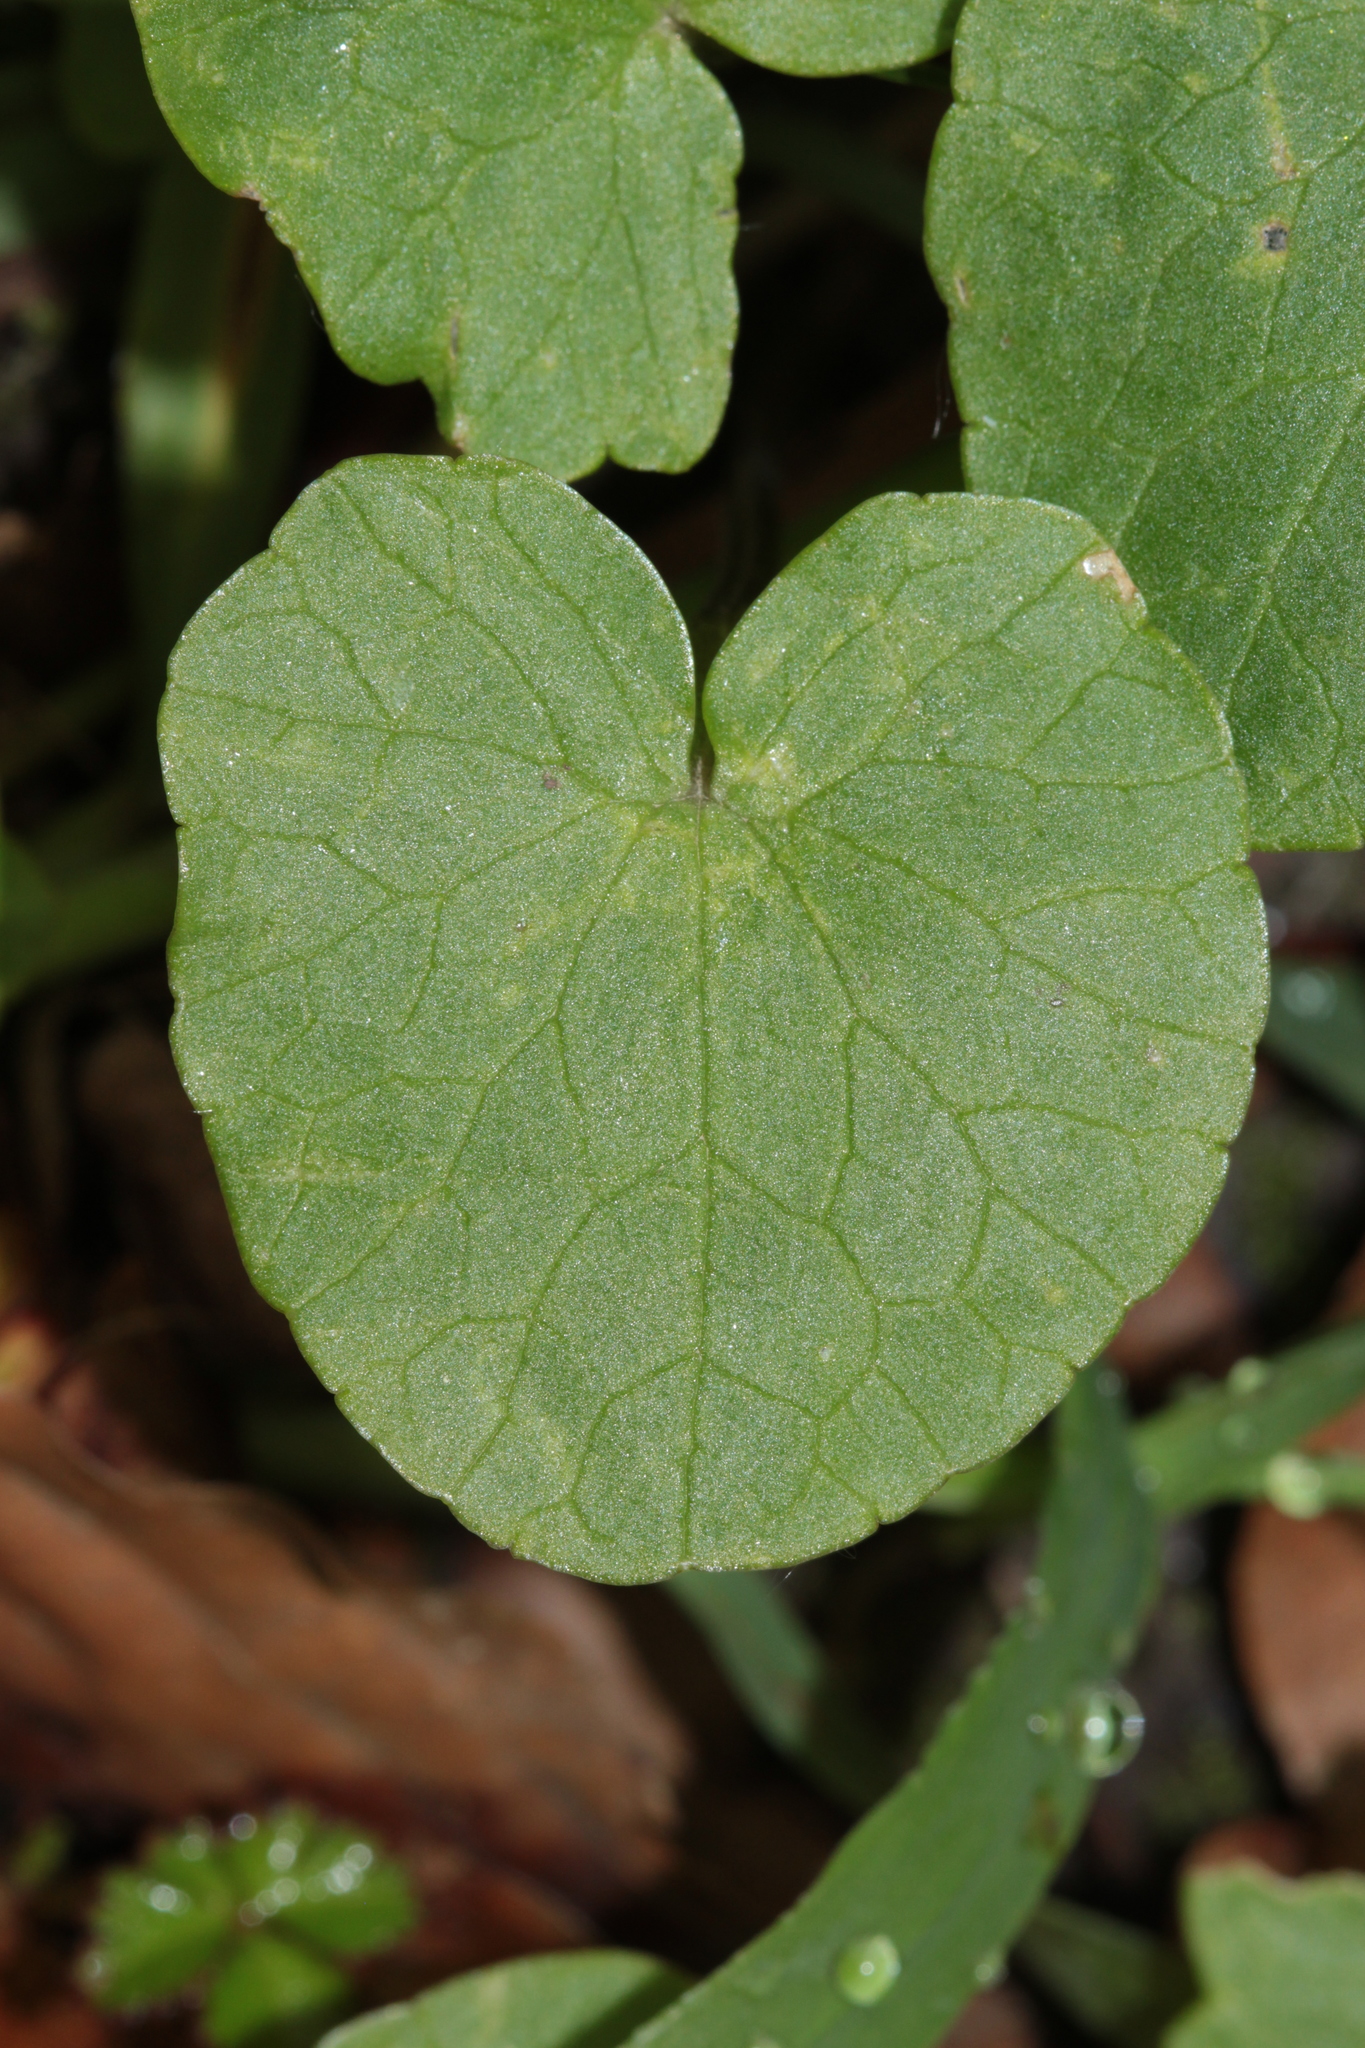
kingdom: Plantae
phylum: Tracheophyta
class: Magnoliopsida
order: Ranunculales
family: Ranunculaceae
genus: Ficaria
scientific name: Ficaria verna
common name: Lesser celandine
